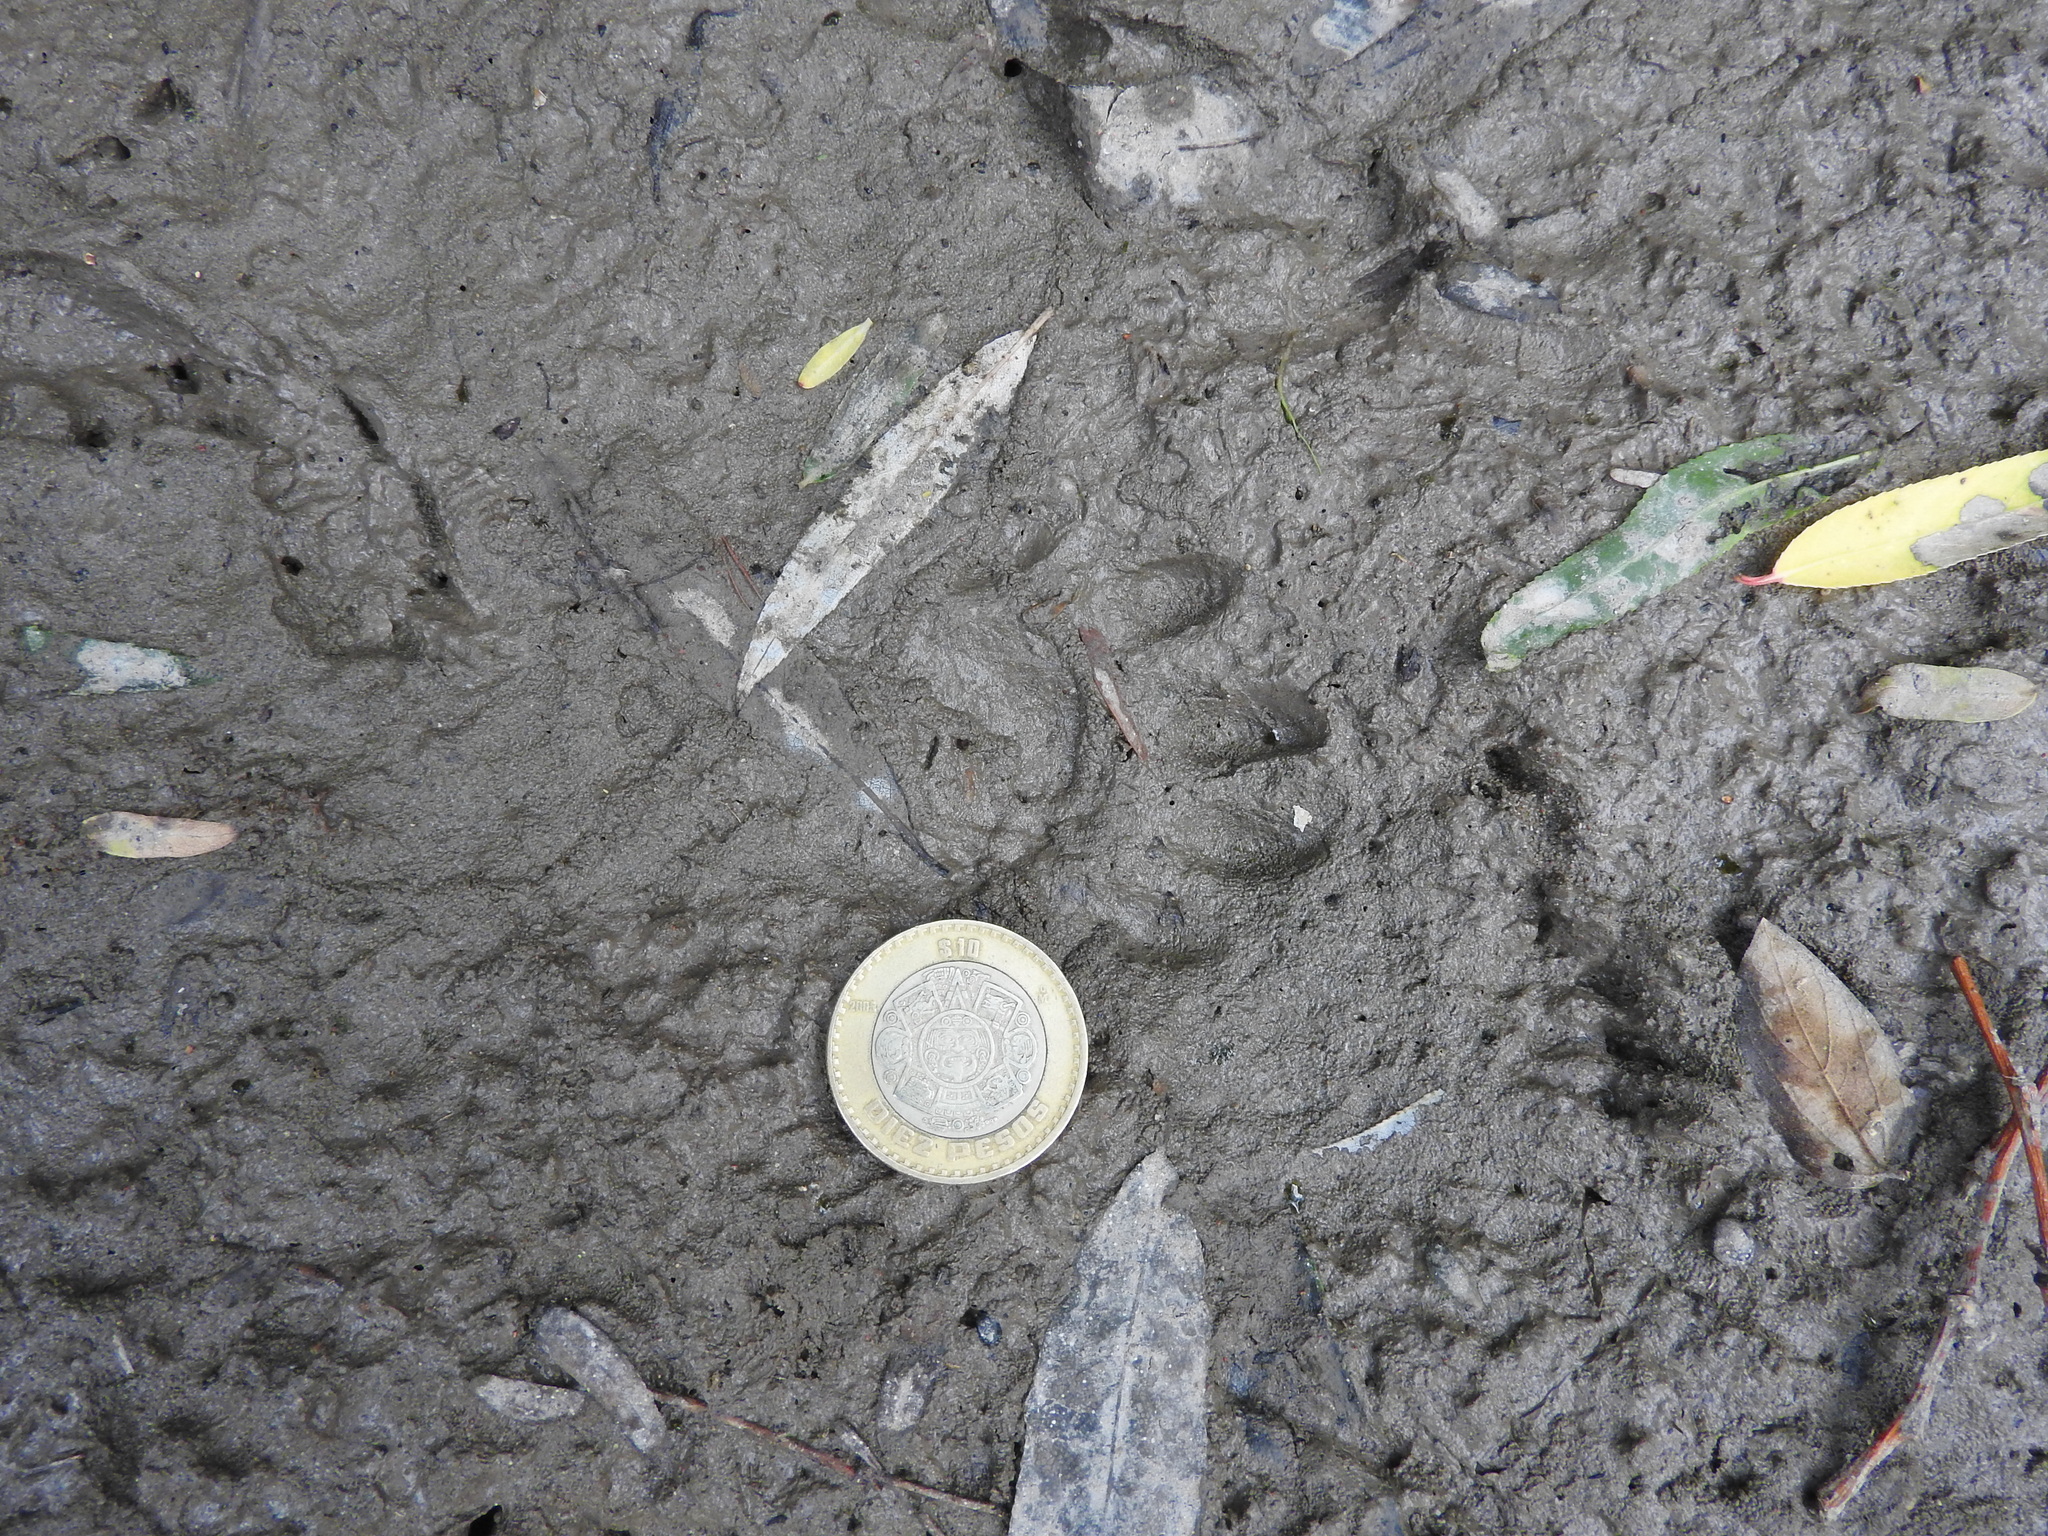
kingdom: Animalia
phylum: Chordata
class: Mammalia
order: Carnivora
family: Procyonidae
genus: Procyon
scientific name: Procyon lotor
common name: Raccoon
